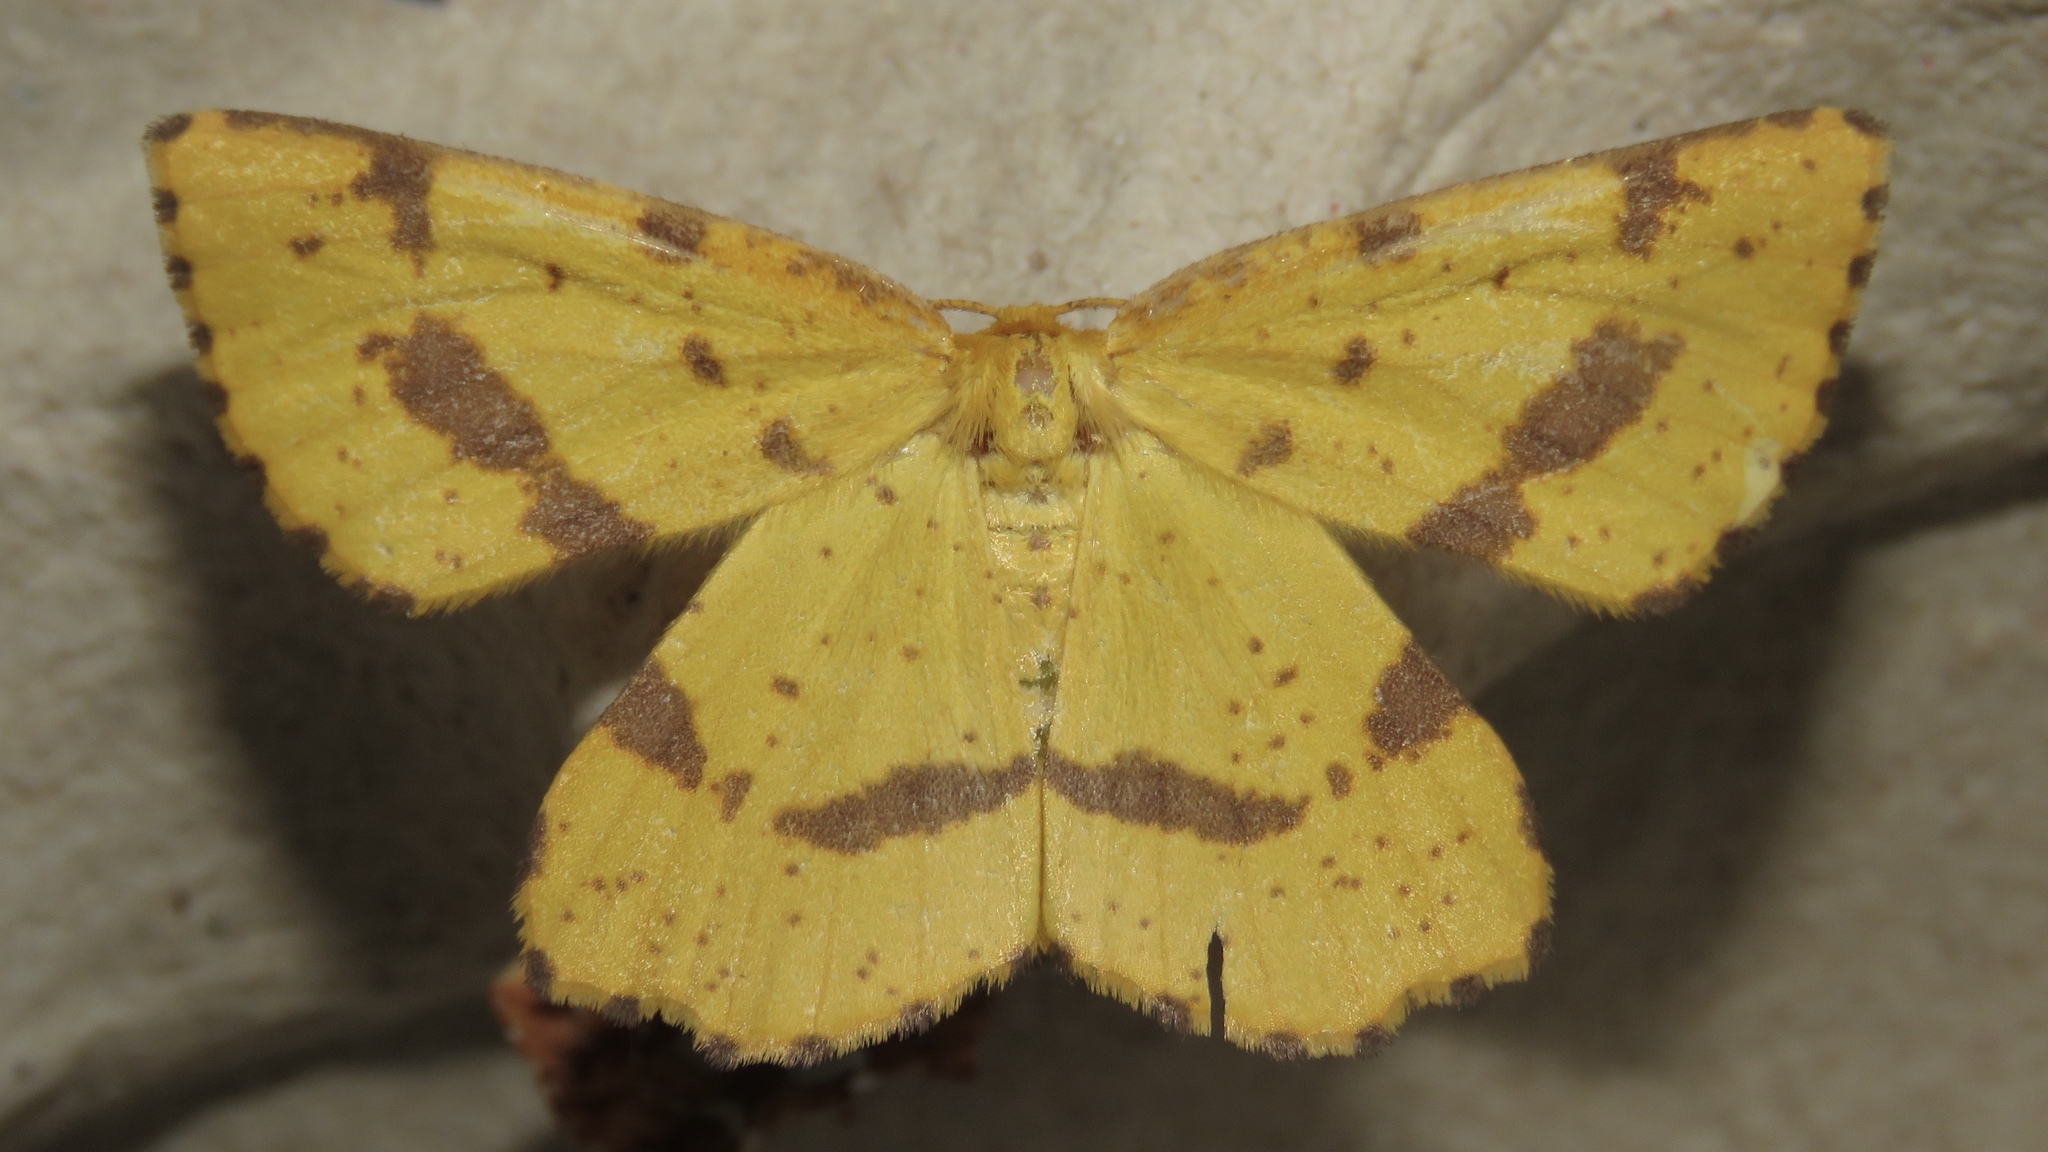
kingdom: Animalia
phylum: Arthropoda
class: Insecta
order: Lepidoptera
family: Geometridae
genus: Xanthotype
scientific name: Xanthotype
